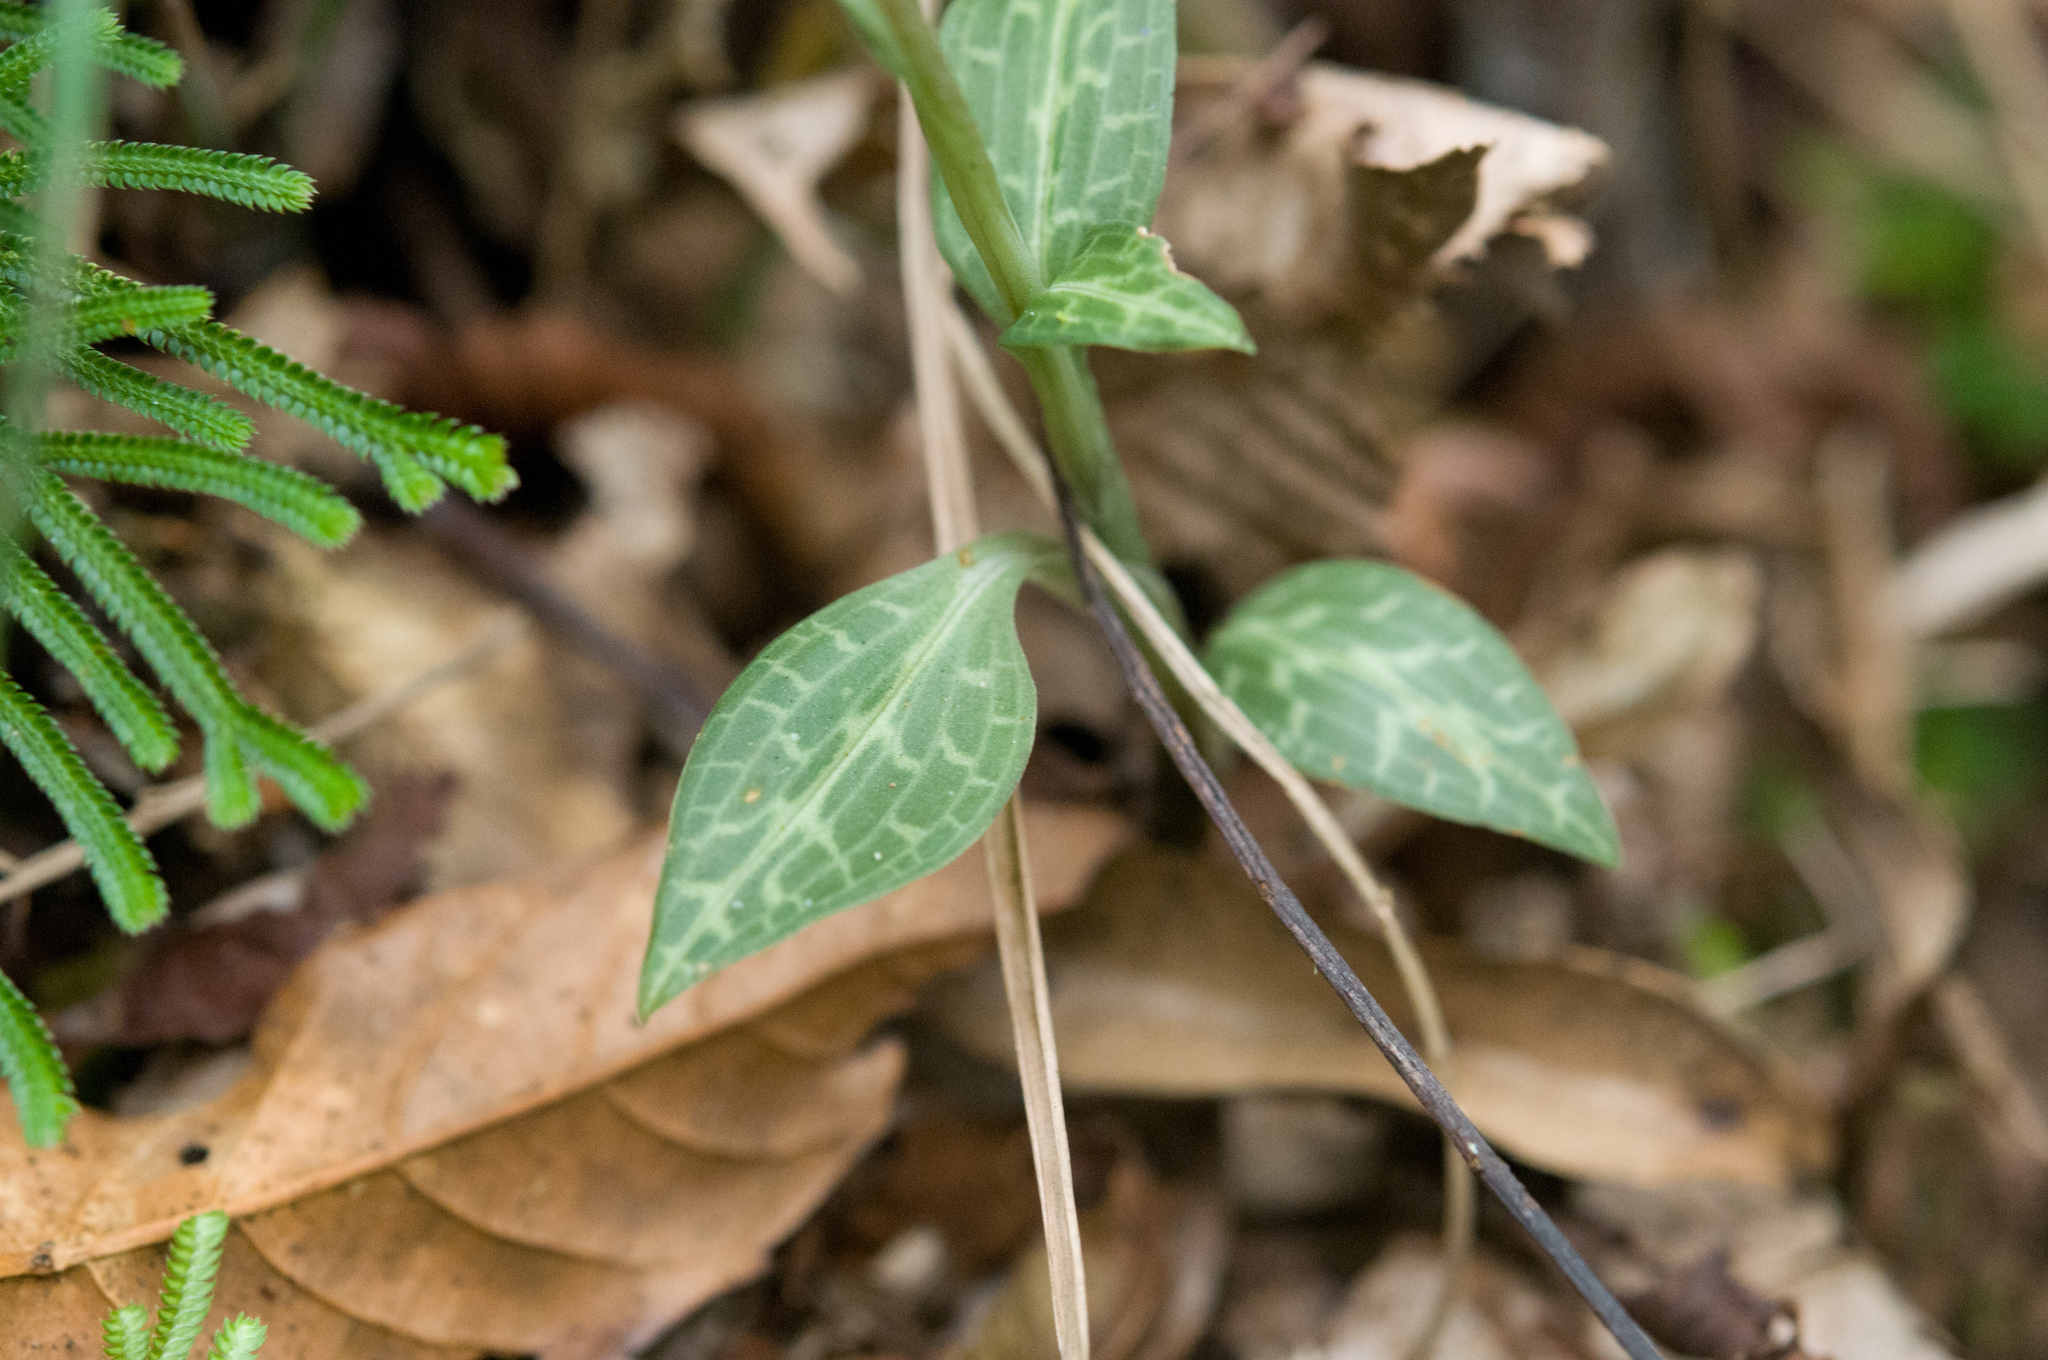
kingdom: Plantae
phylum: Tracheophyta
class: Liliopsida
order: Asparagales
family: Orchidaceae
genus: Goodyera
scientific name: Goodyera schlechtendaliana
